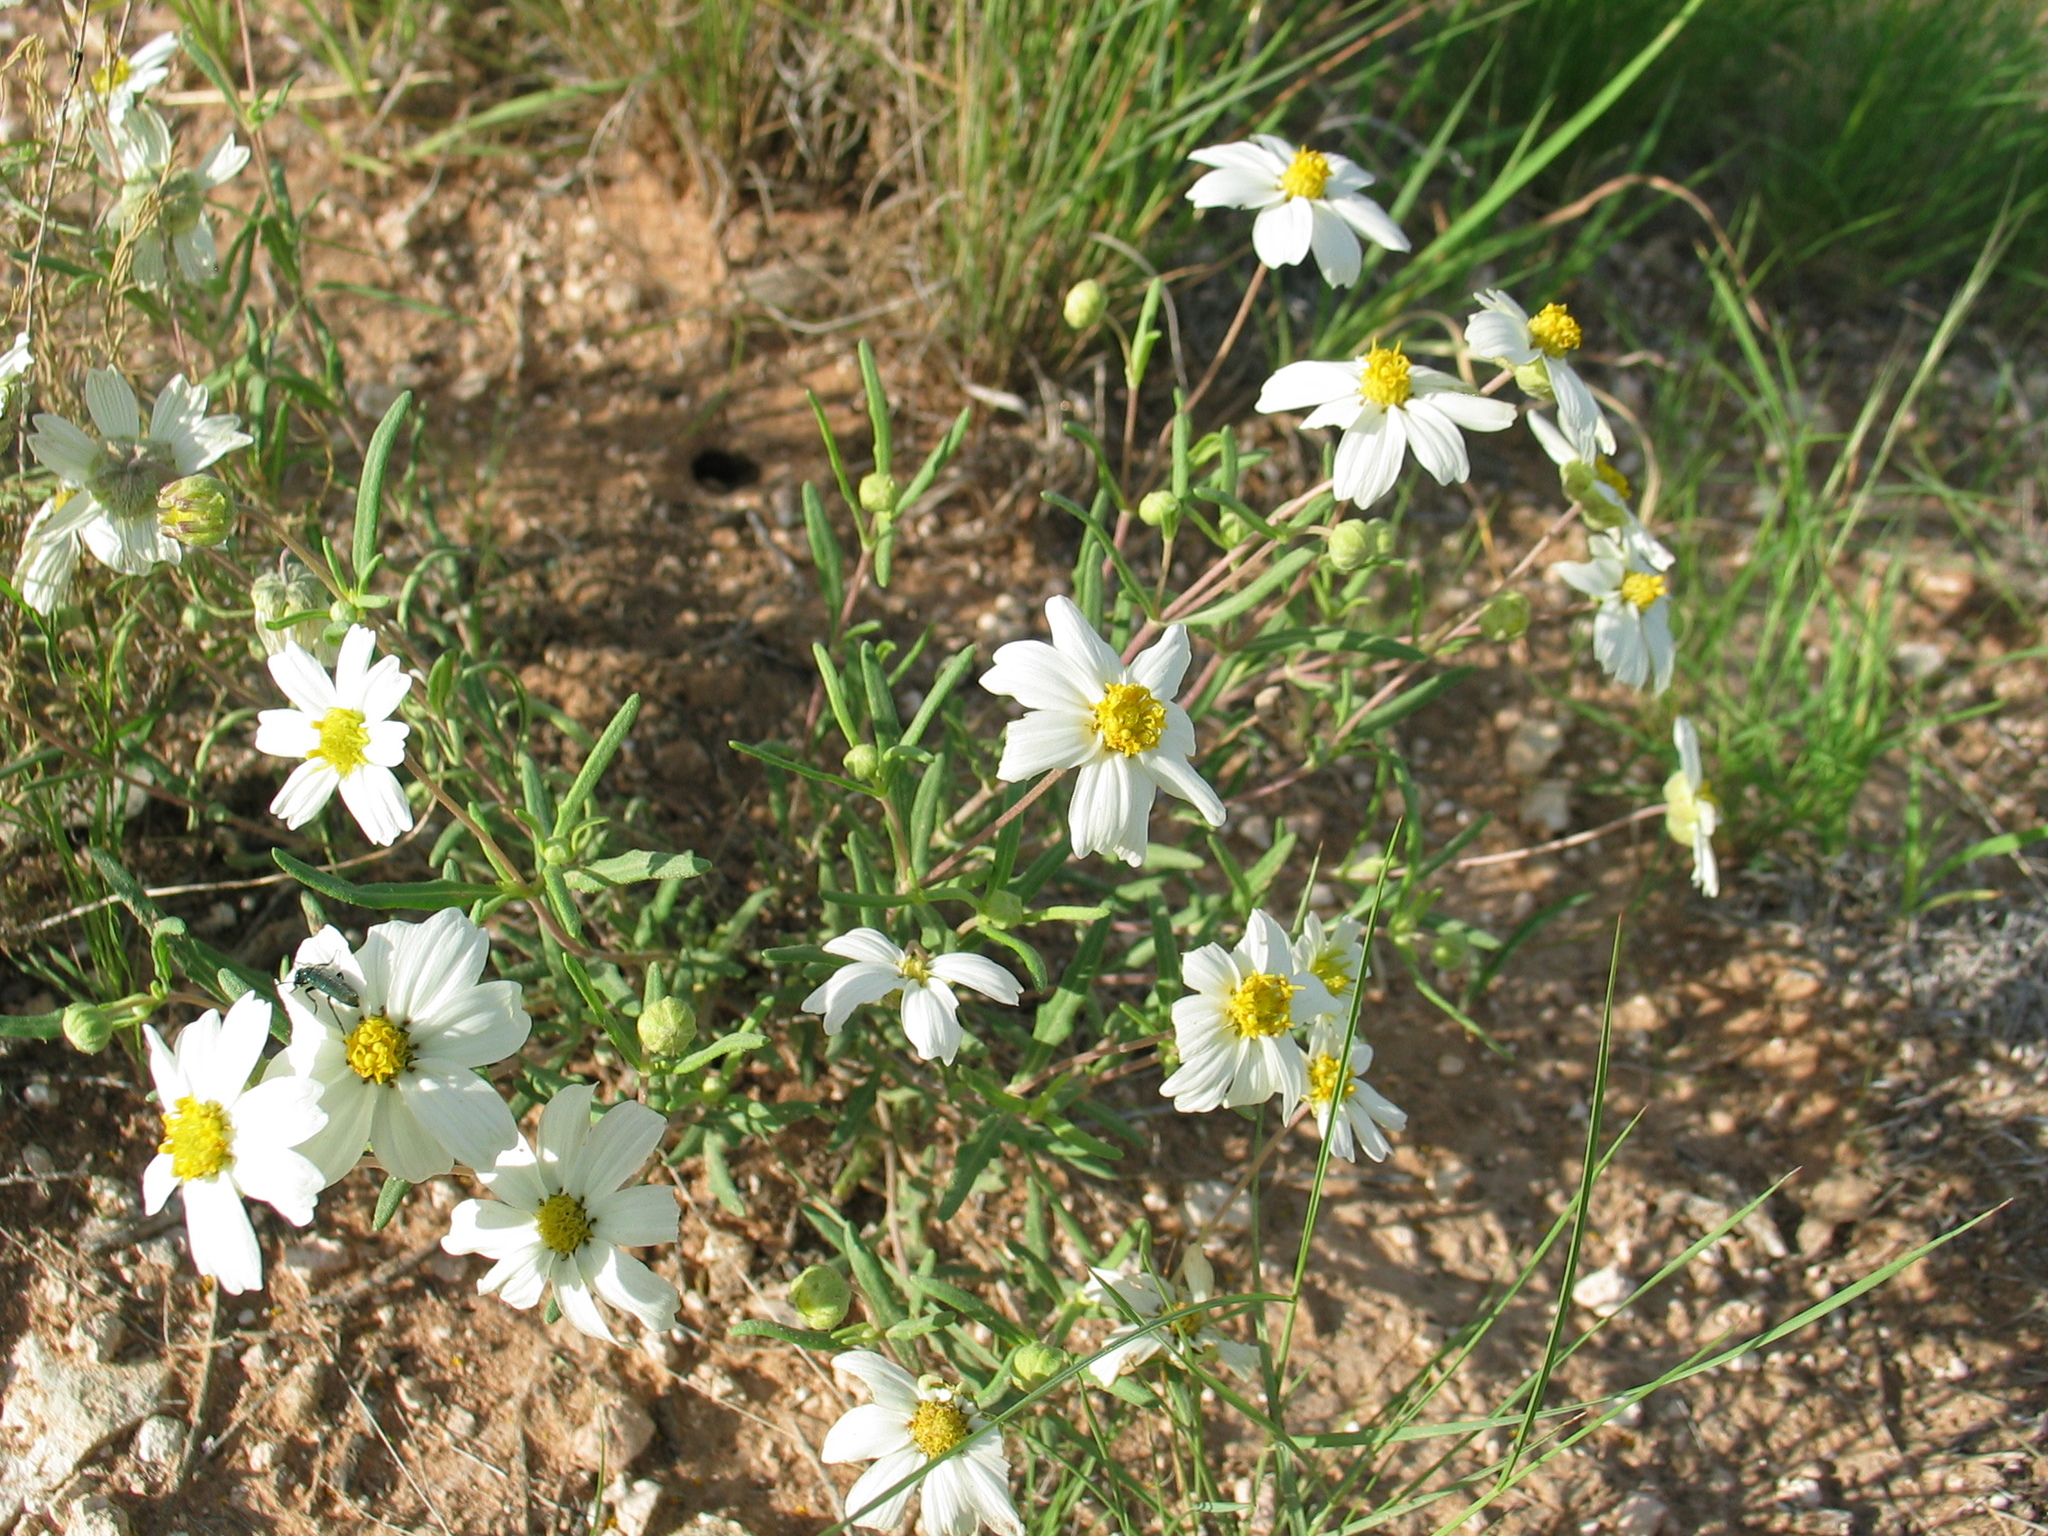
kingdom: Plantae
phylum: Tracheophyta
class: Magnoliopsida
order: Asterales
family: Asteraceae
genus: Melampodium
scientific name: Melampodium leucanthum
